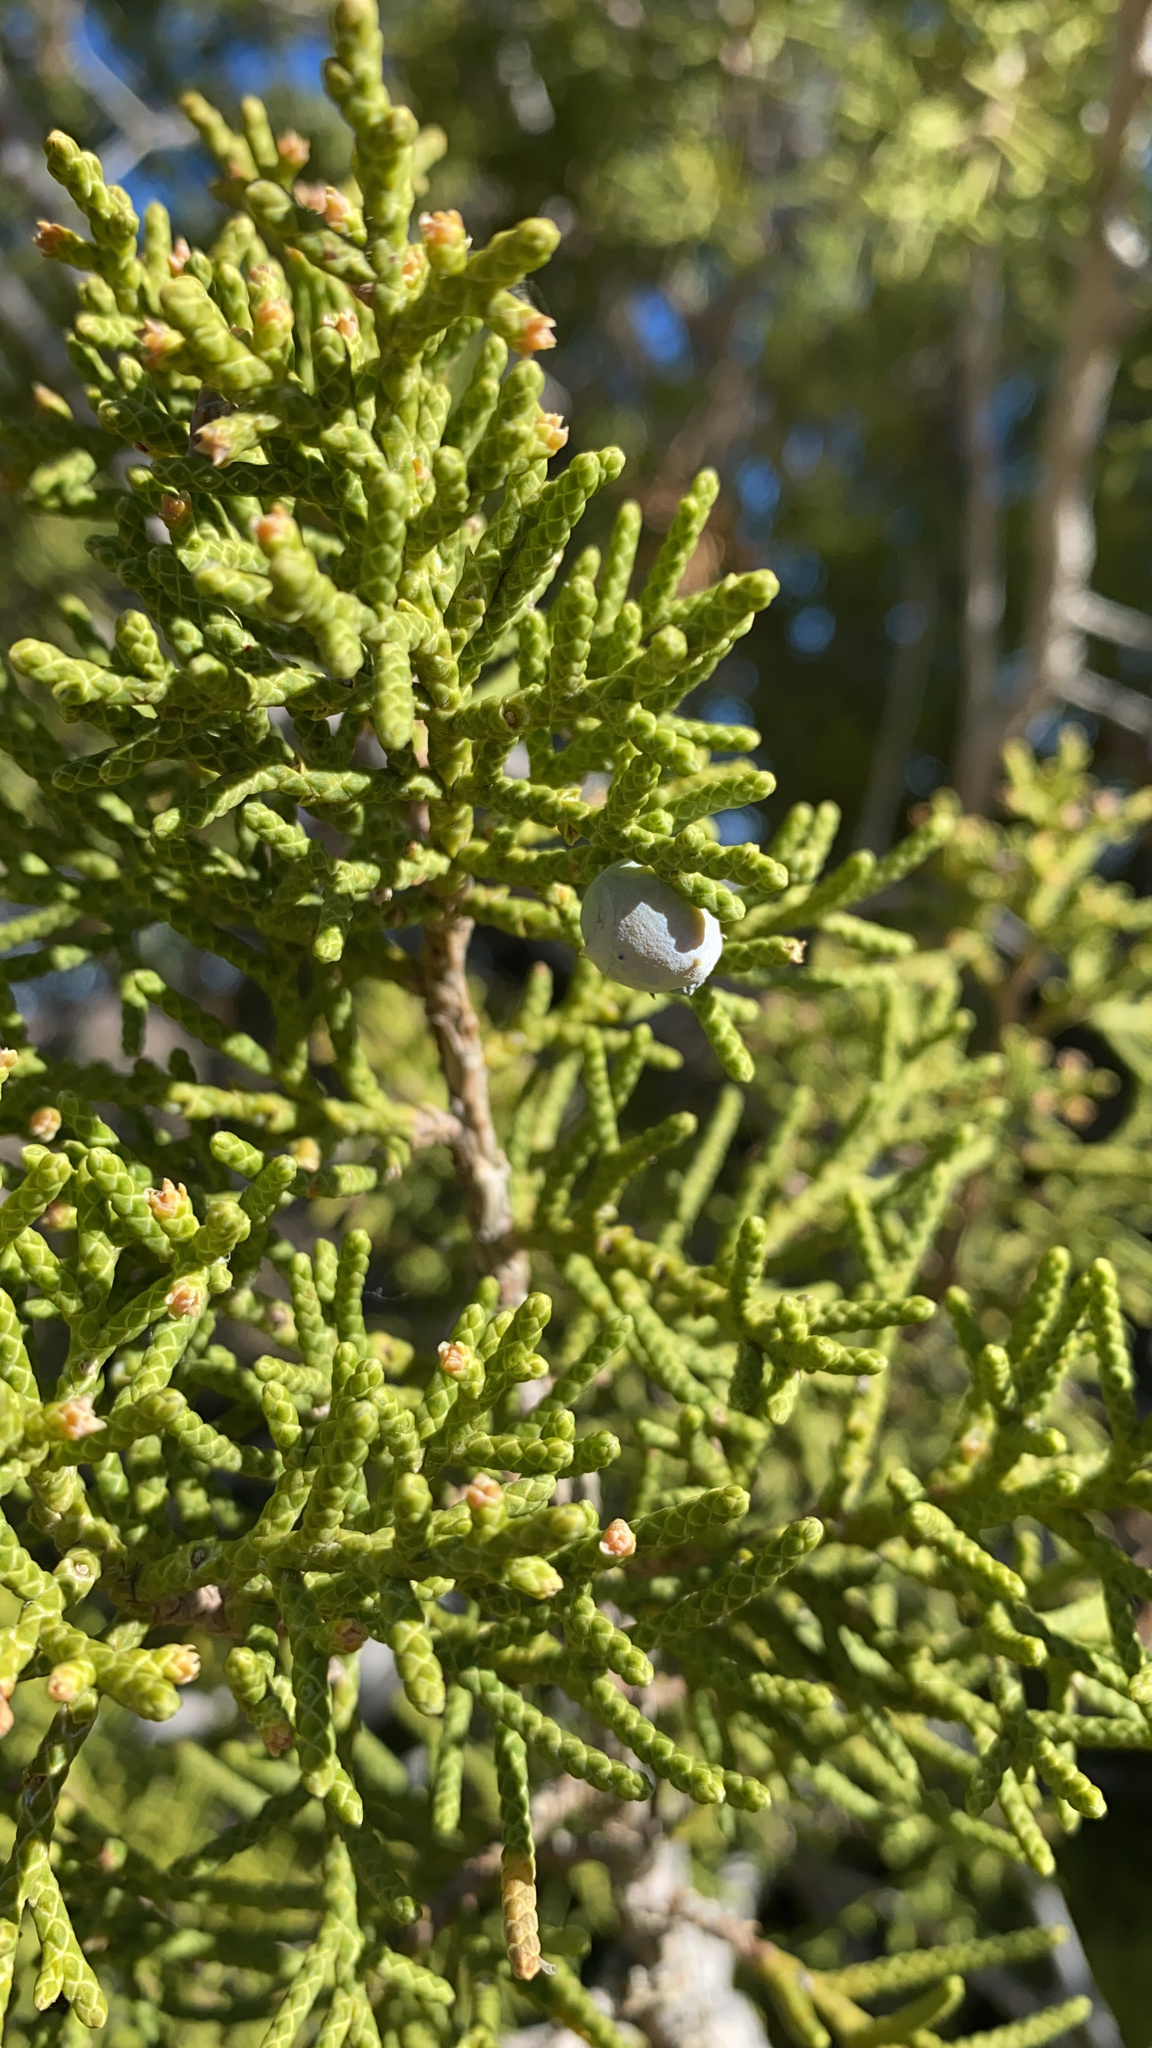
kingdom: Plantae
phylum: Tracheophyta
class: Pinopsida
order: Pinales
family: Cupressaceae
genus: Juniperus
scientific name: Juniperus californica
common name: California juniper
